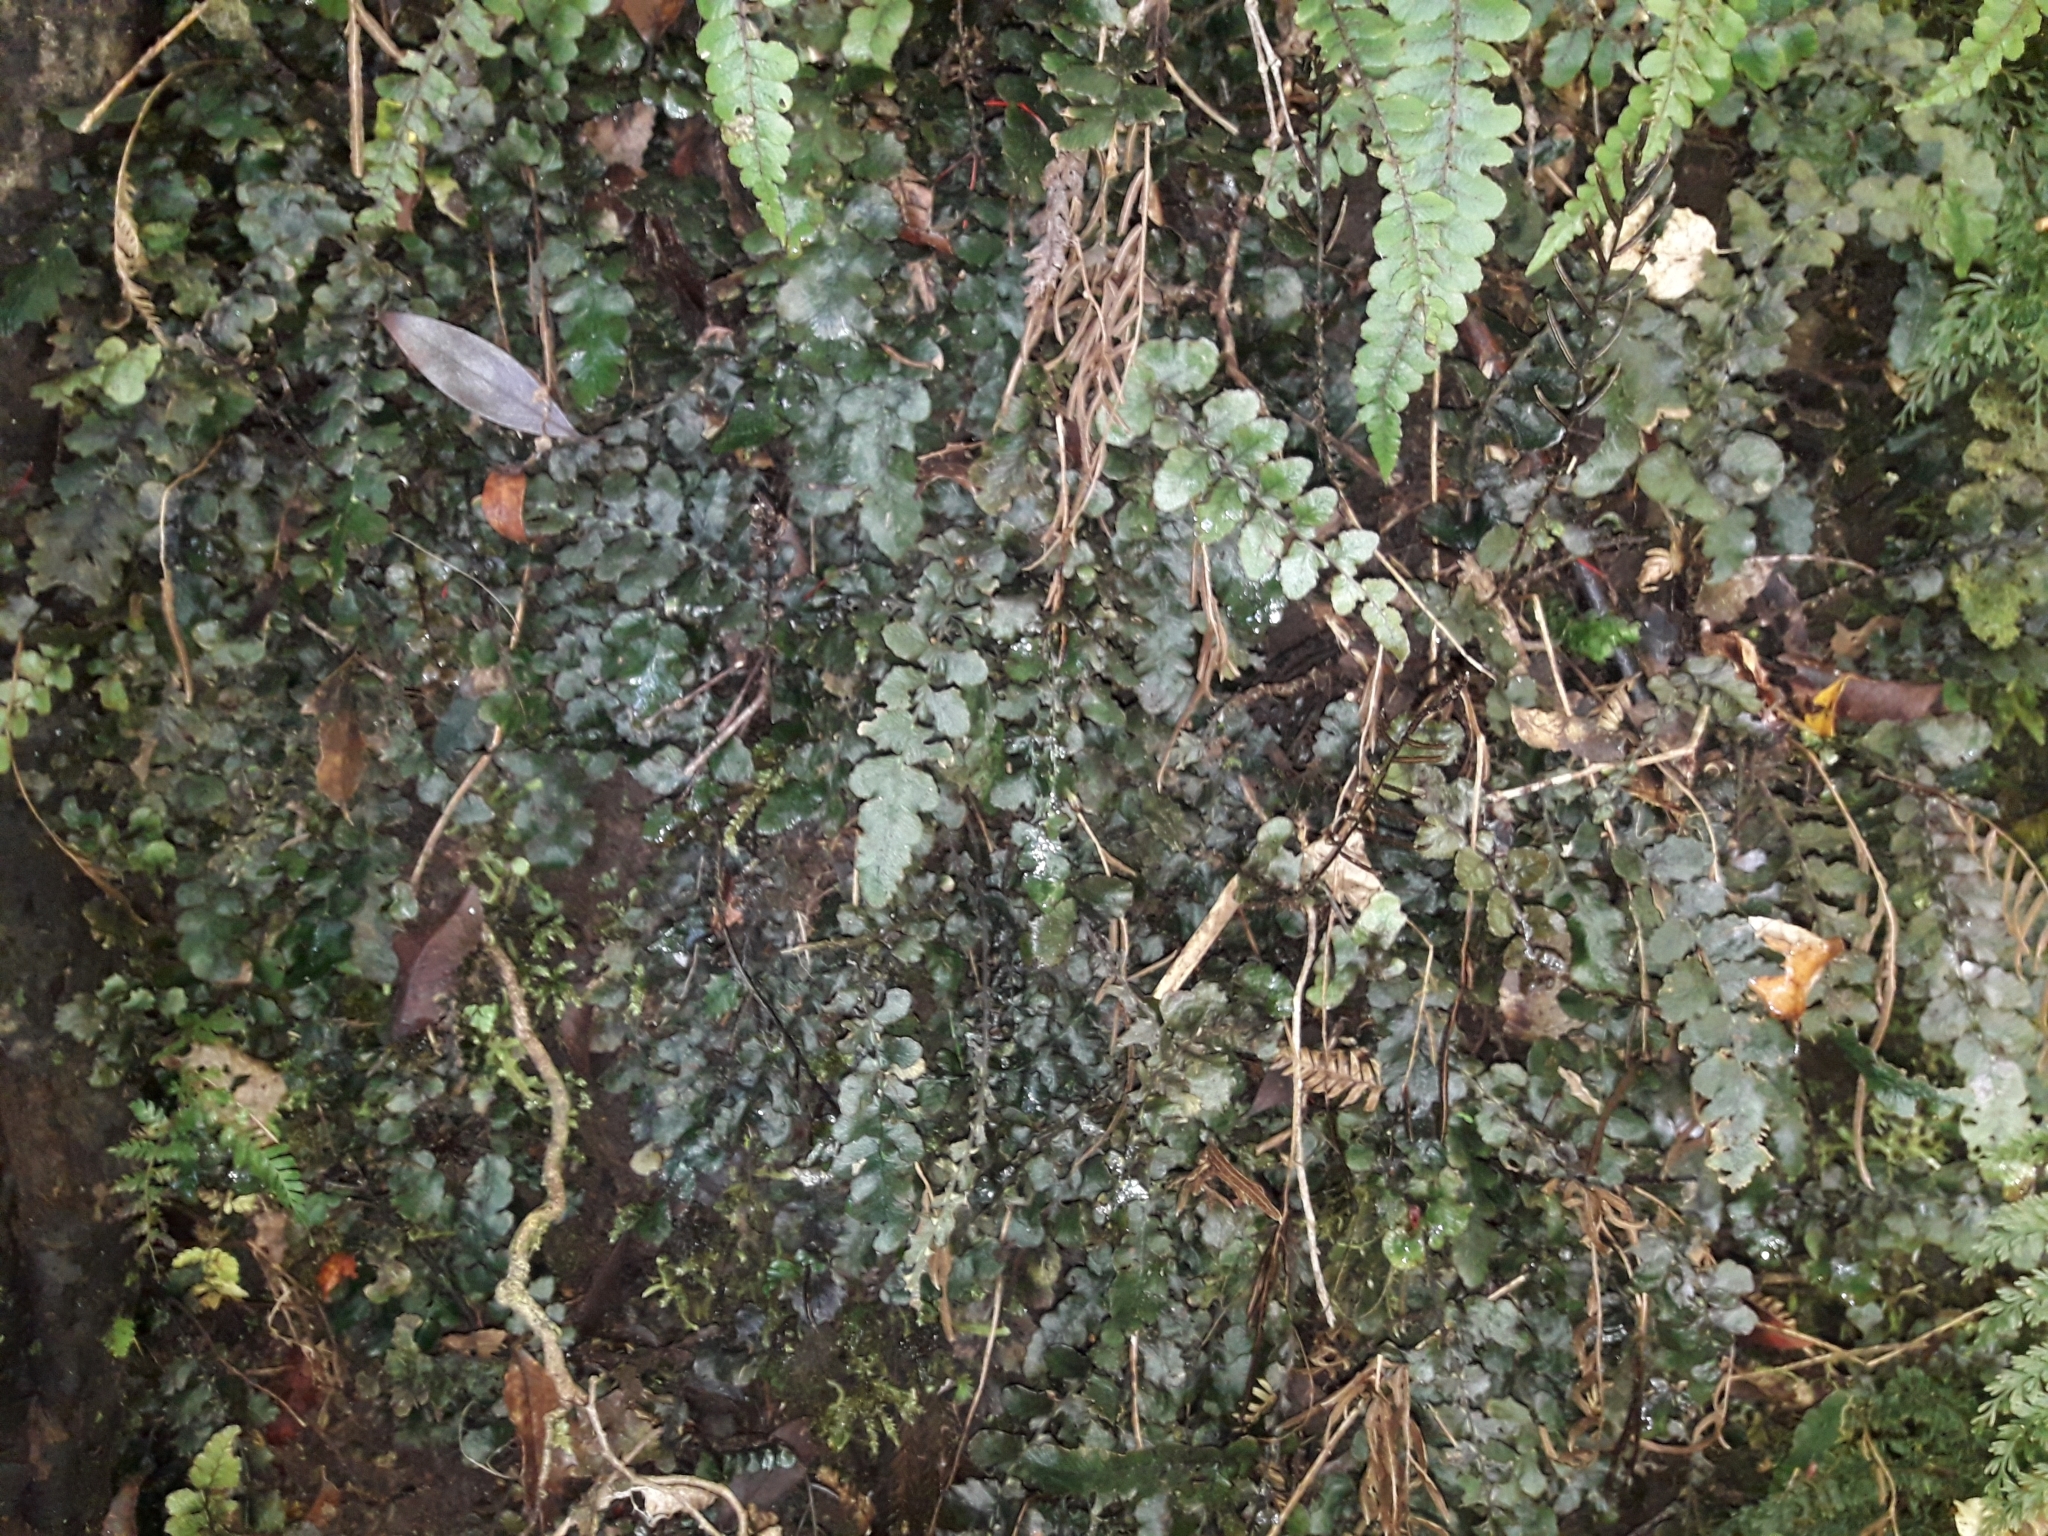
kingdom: Plantae
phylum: Tracheophyta
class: Polypodiopsida
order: Polypodiales
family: Blechnaceae
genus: Cranfillia
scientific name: Cranfillia nigra
